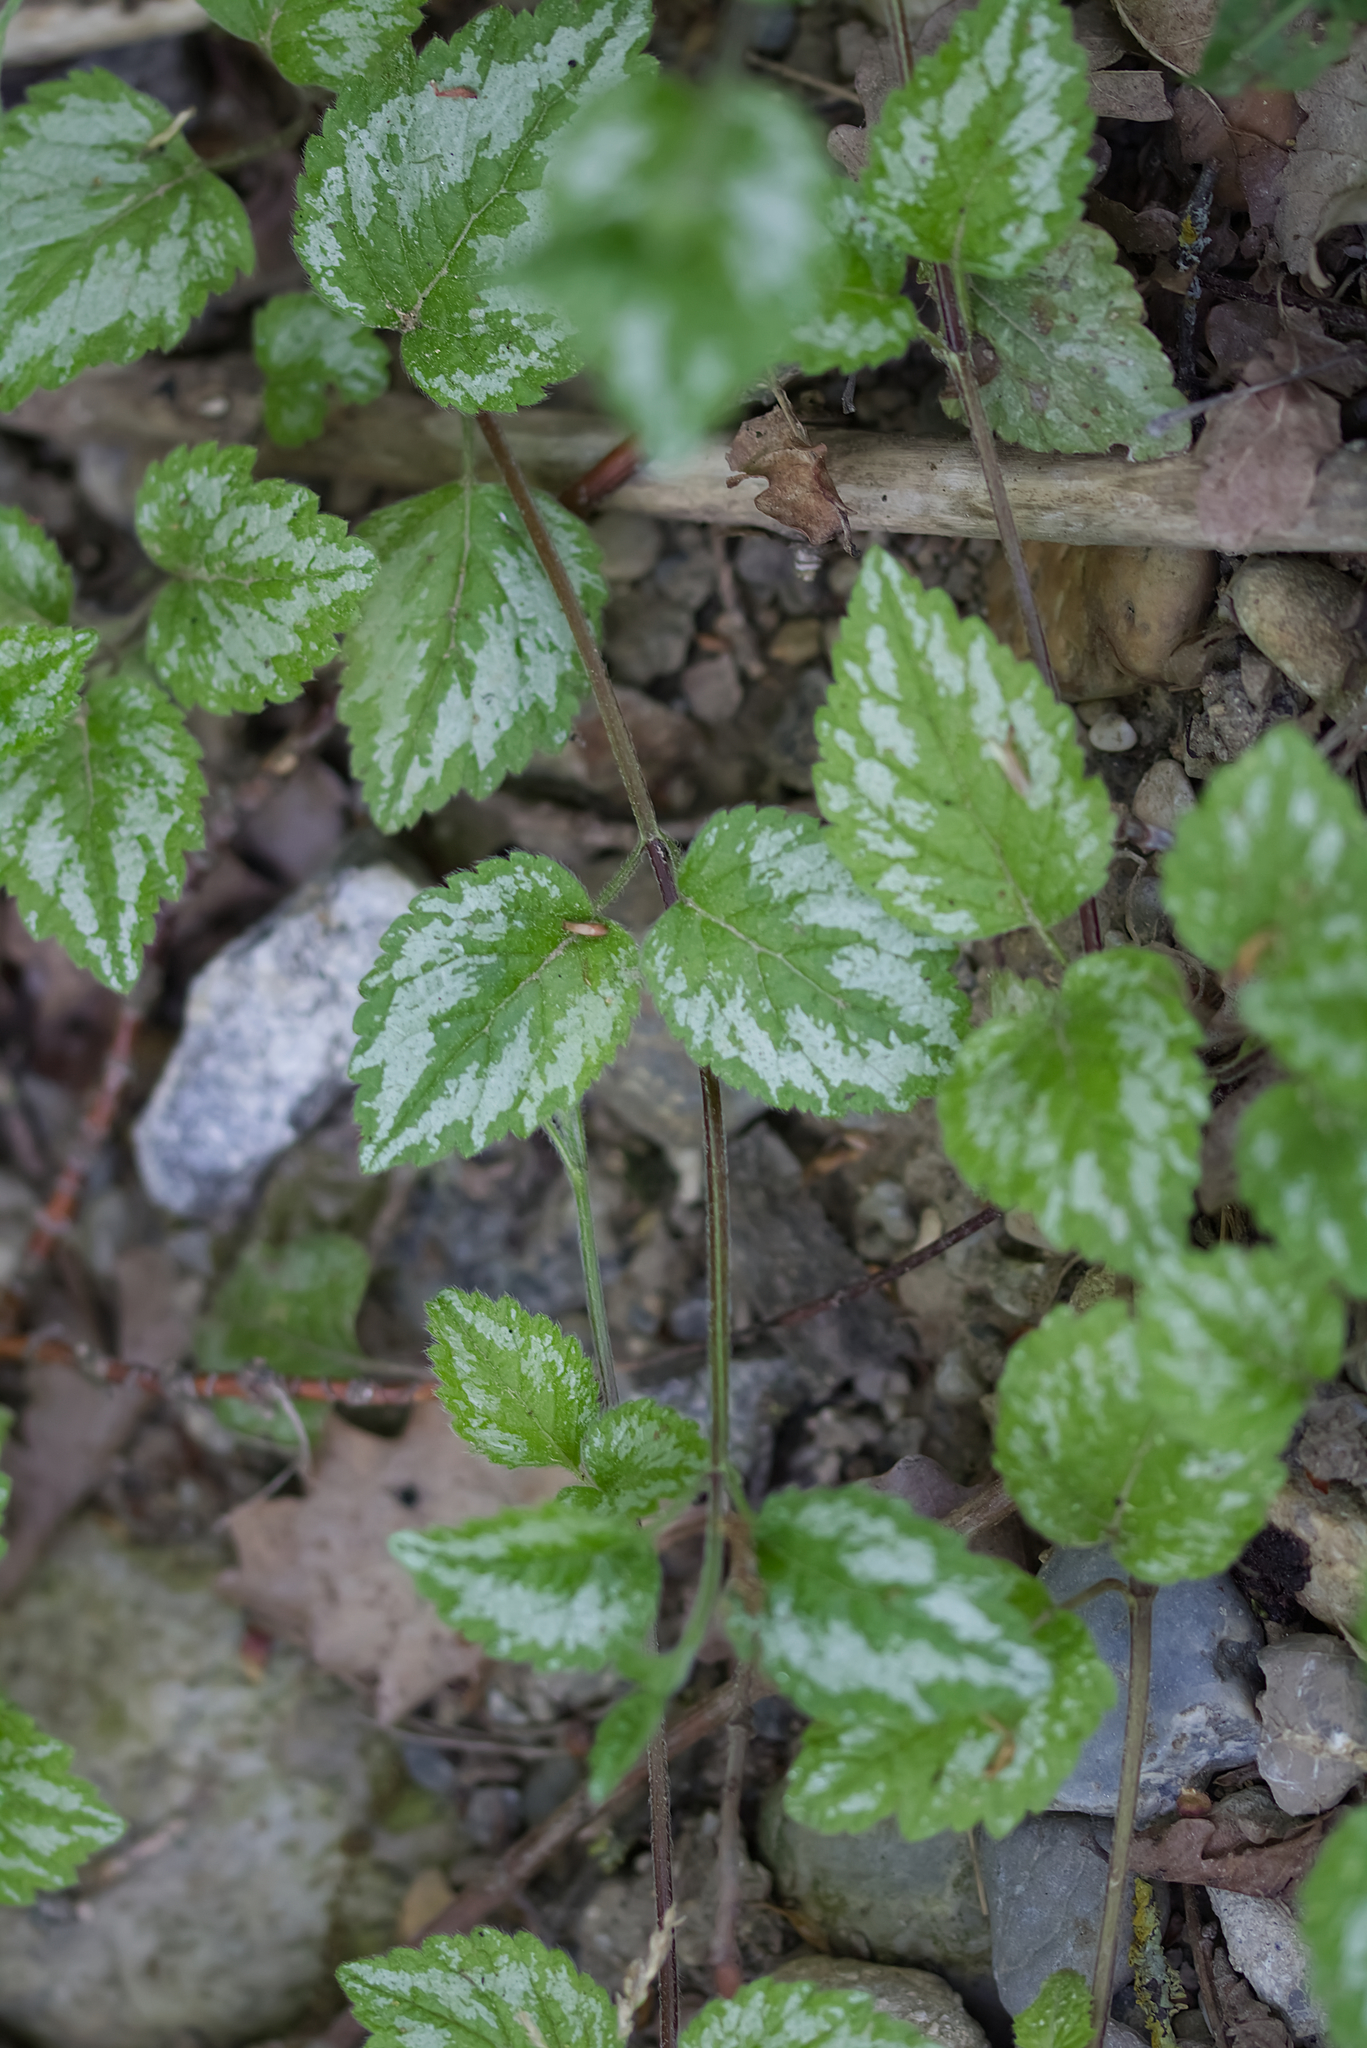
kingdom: Plantae
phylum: Tracheophyta
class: Magnoliopsida
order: Lamiales
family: Lamiaceae
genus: Lamium
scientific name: Lamium galeobdolon
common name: Yellow archangel
